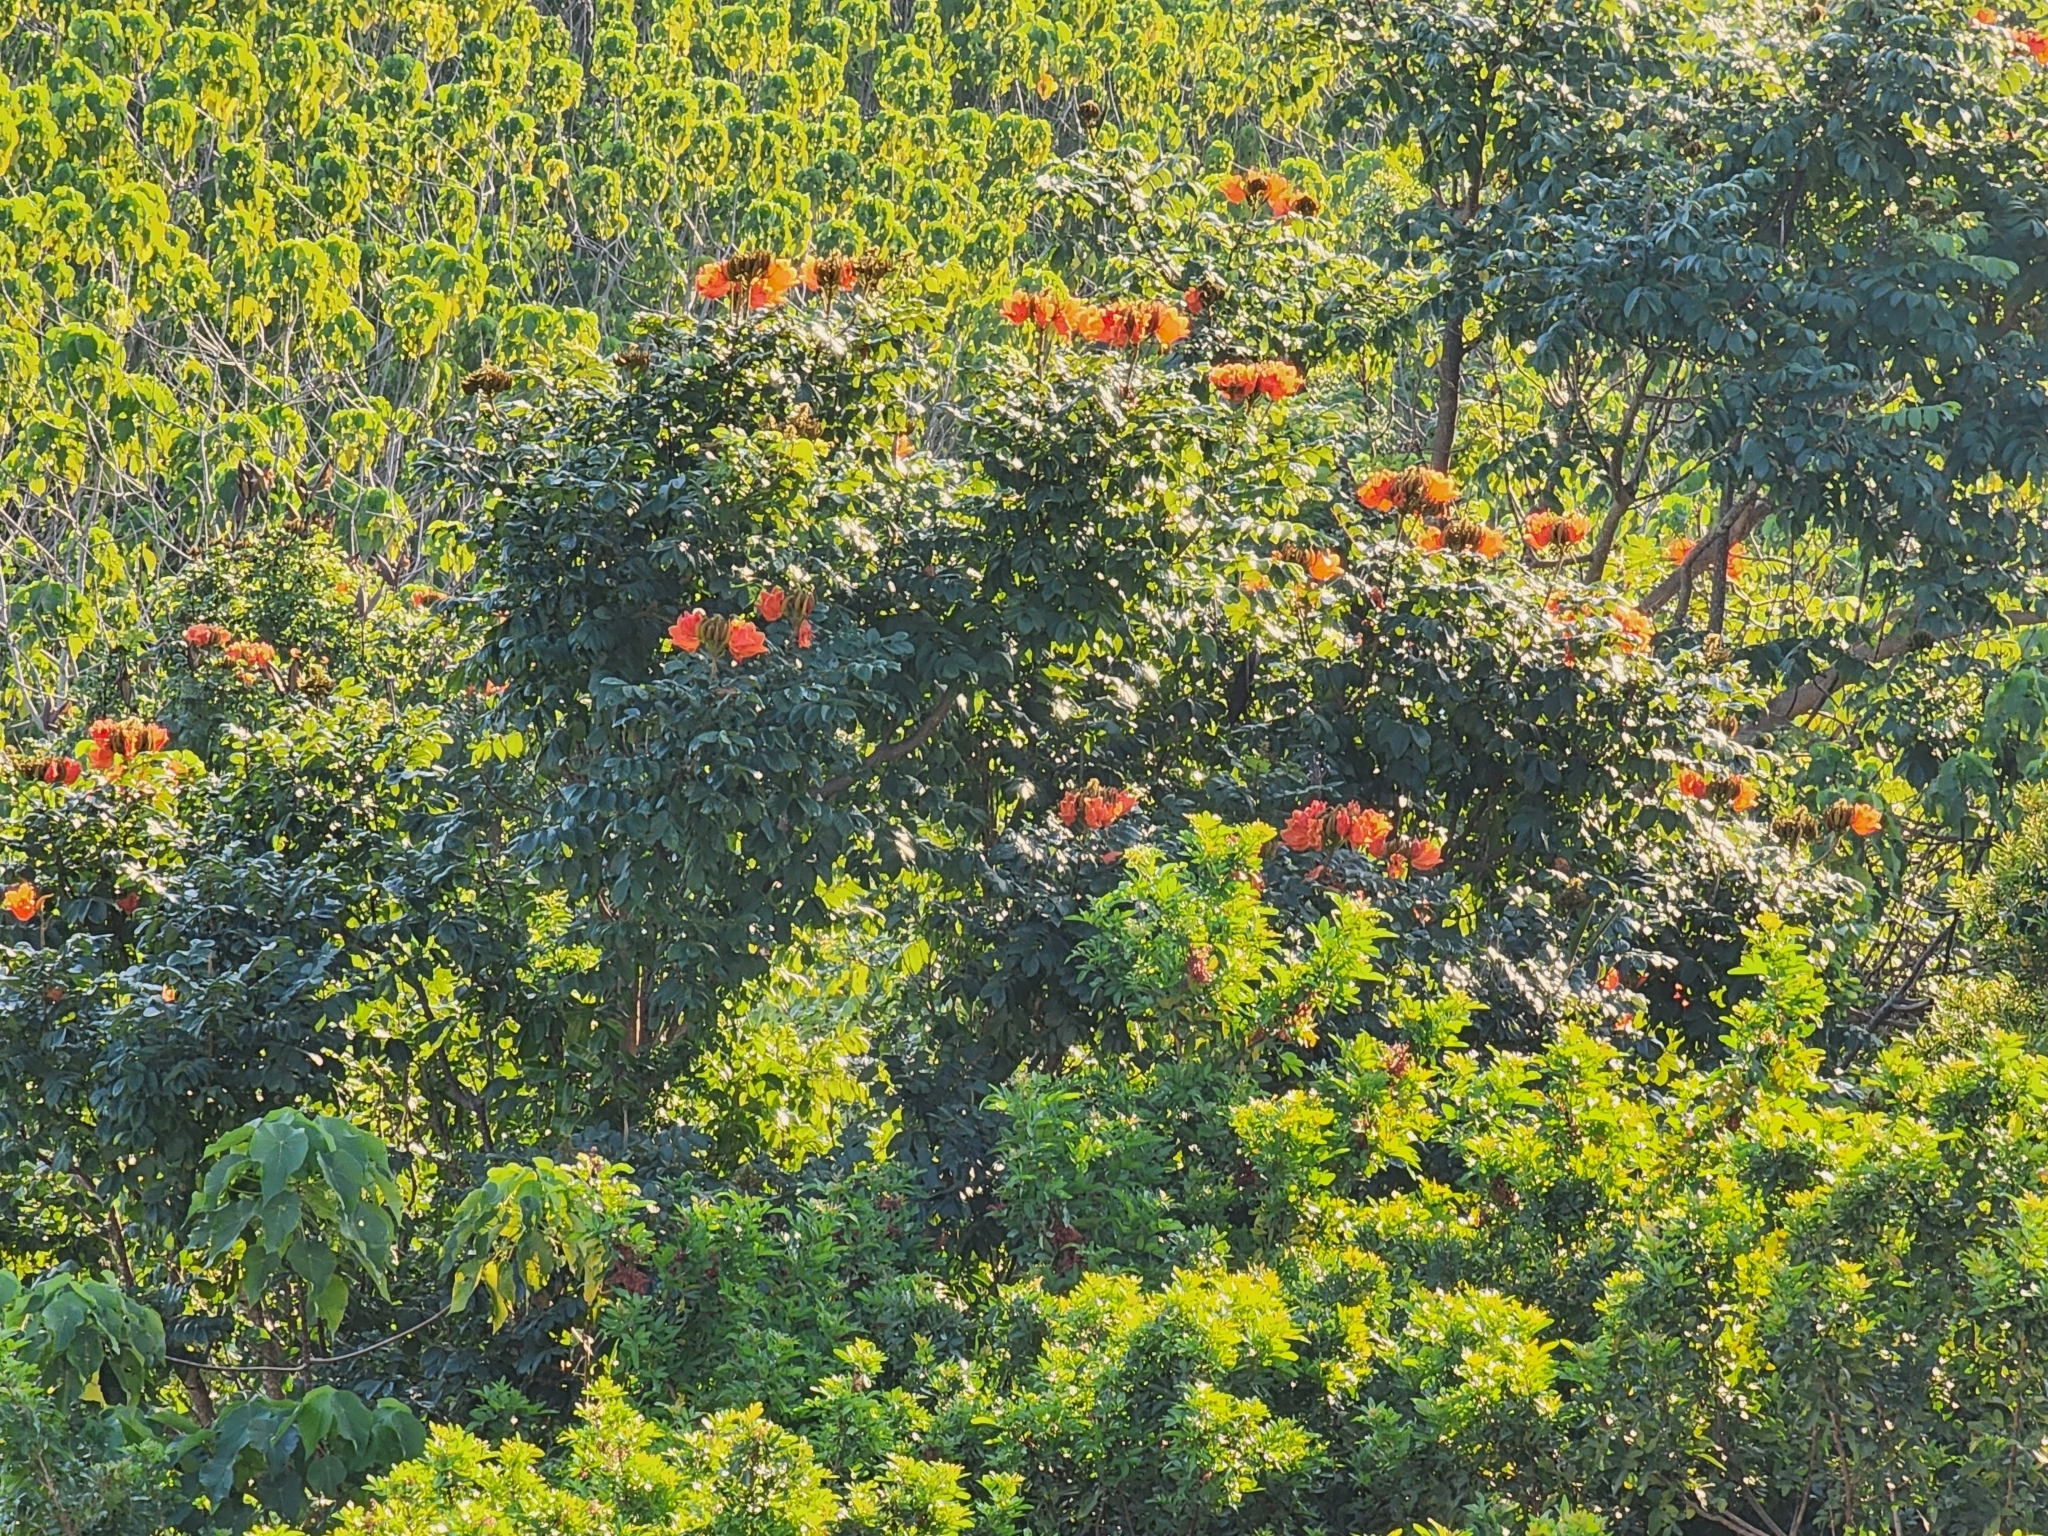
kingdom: Plantae
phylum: Tracheophyta
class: Magnoliopsida
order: Lamiales
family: Bignoniaceae
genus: Spathodea
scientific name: Spathodea campanulata
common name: African tuliptree
